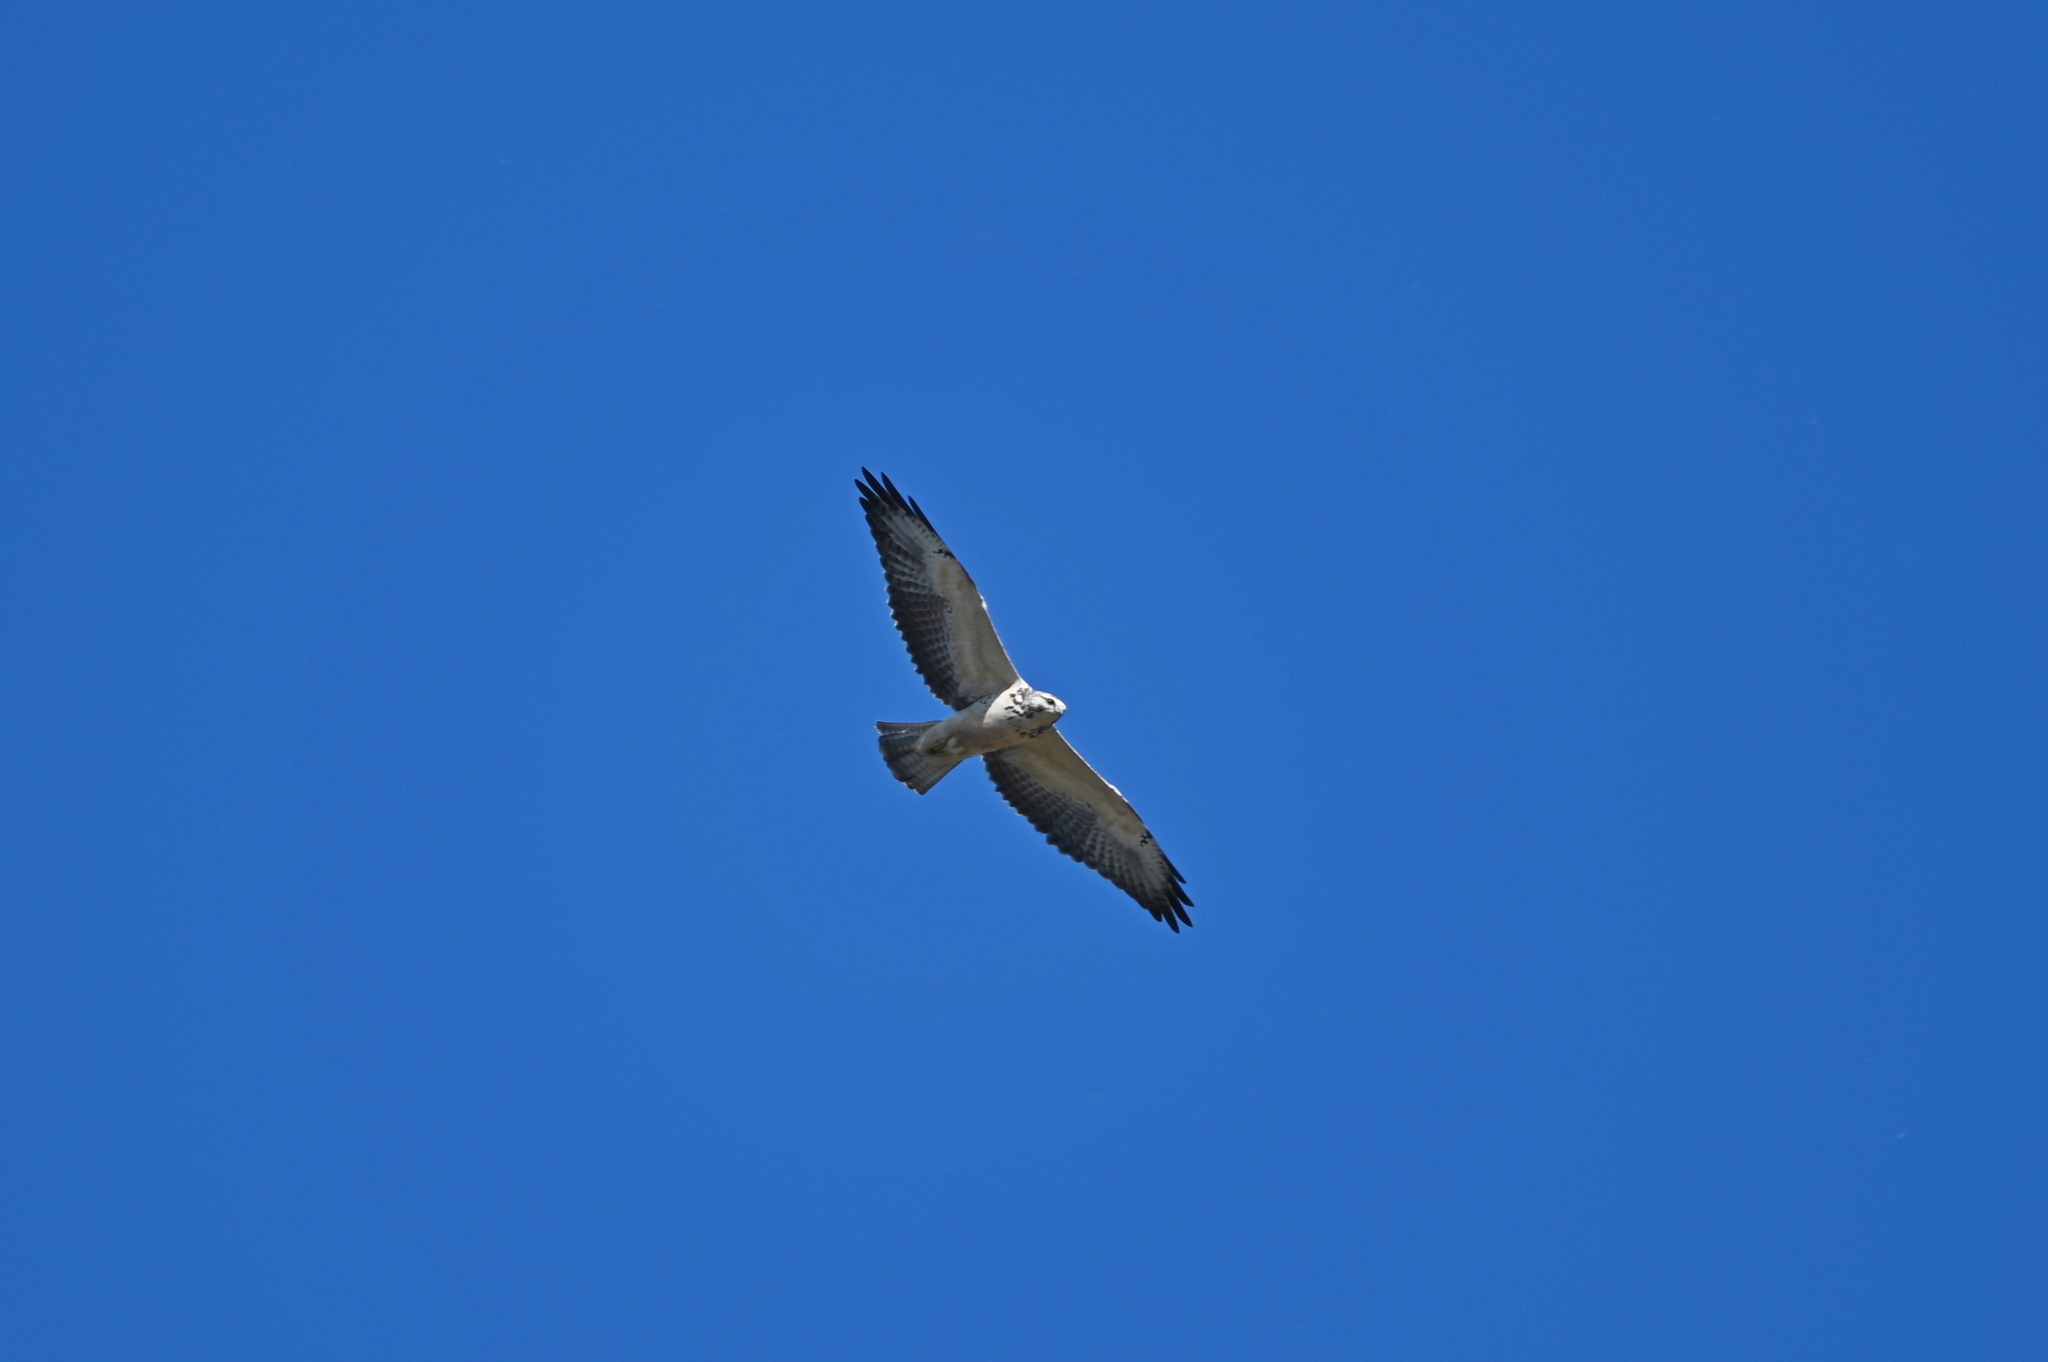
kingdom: Animalia
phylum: Chordata
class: Aves
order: Accipitriformes
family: Accipitridae
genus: Buteo
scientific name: Buteo swainsoni
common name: Swainson's hawk
